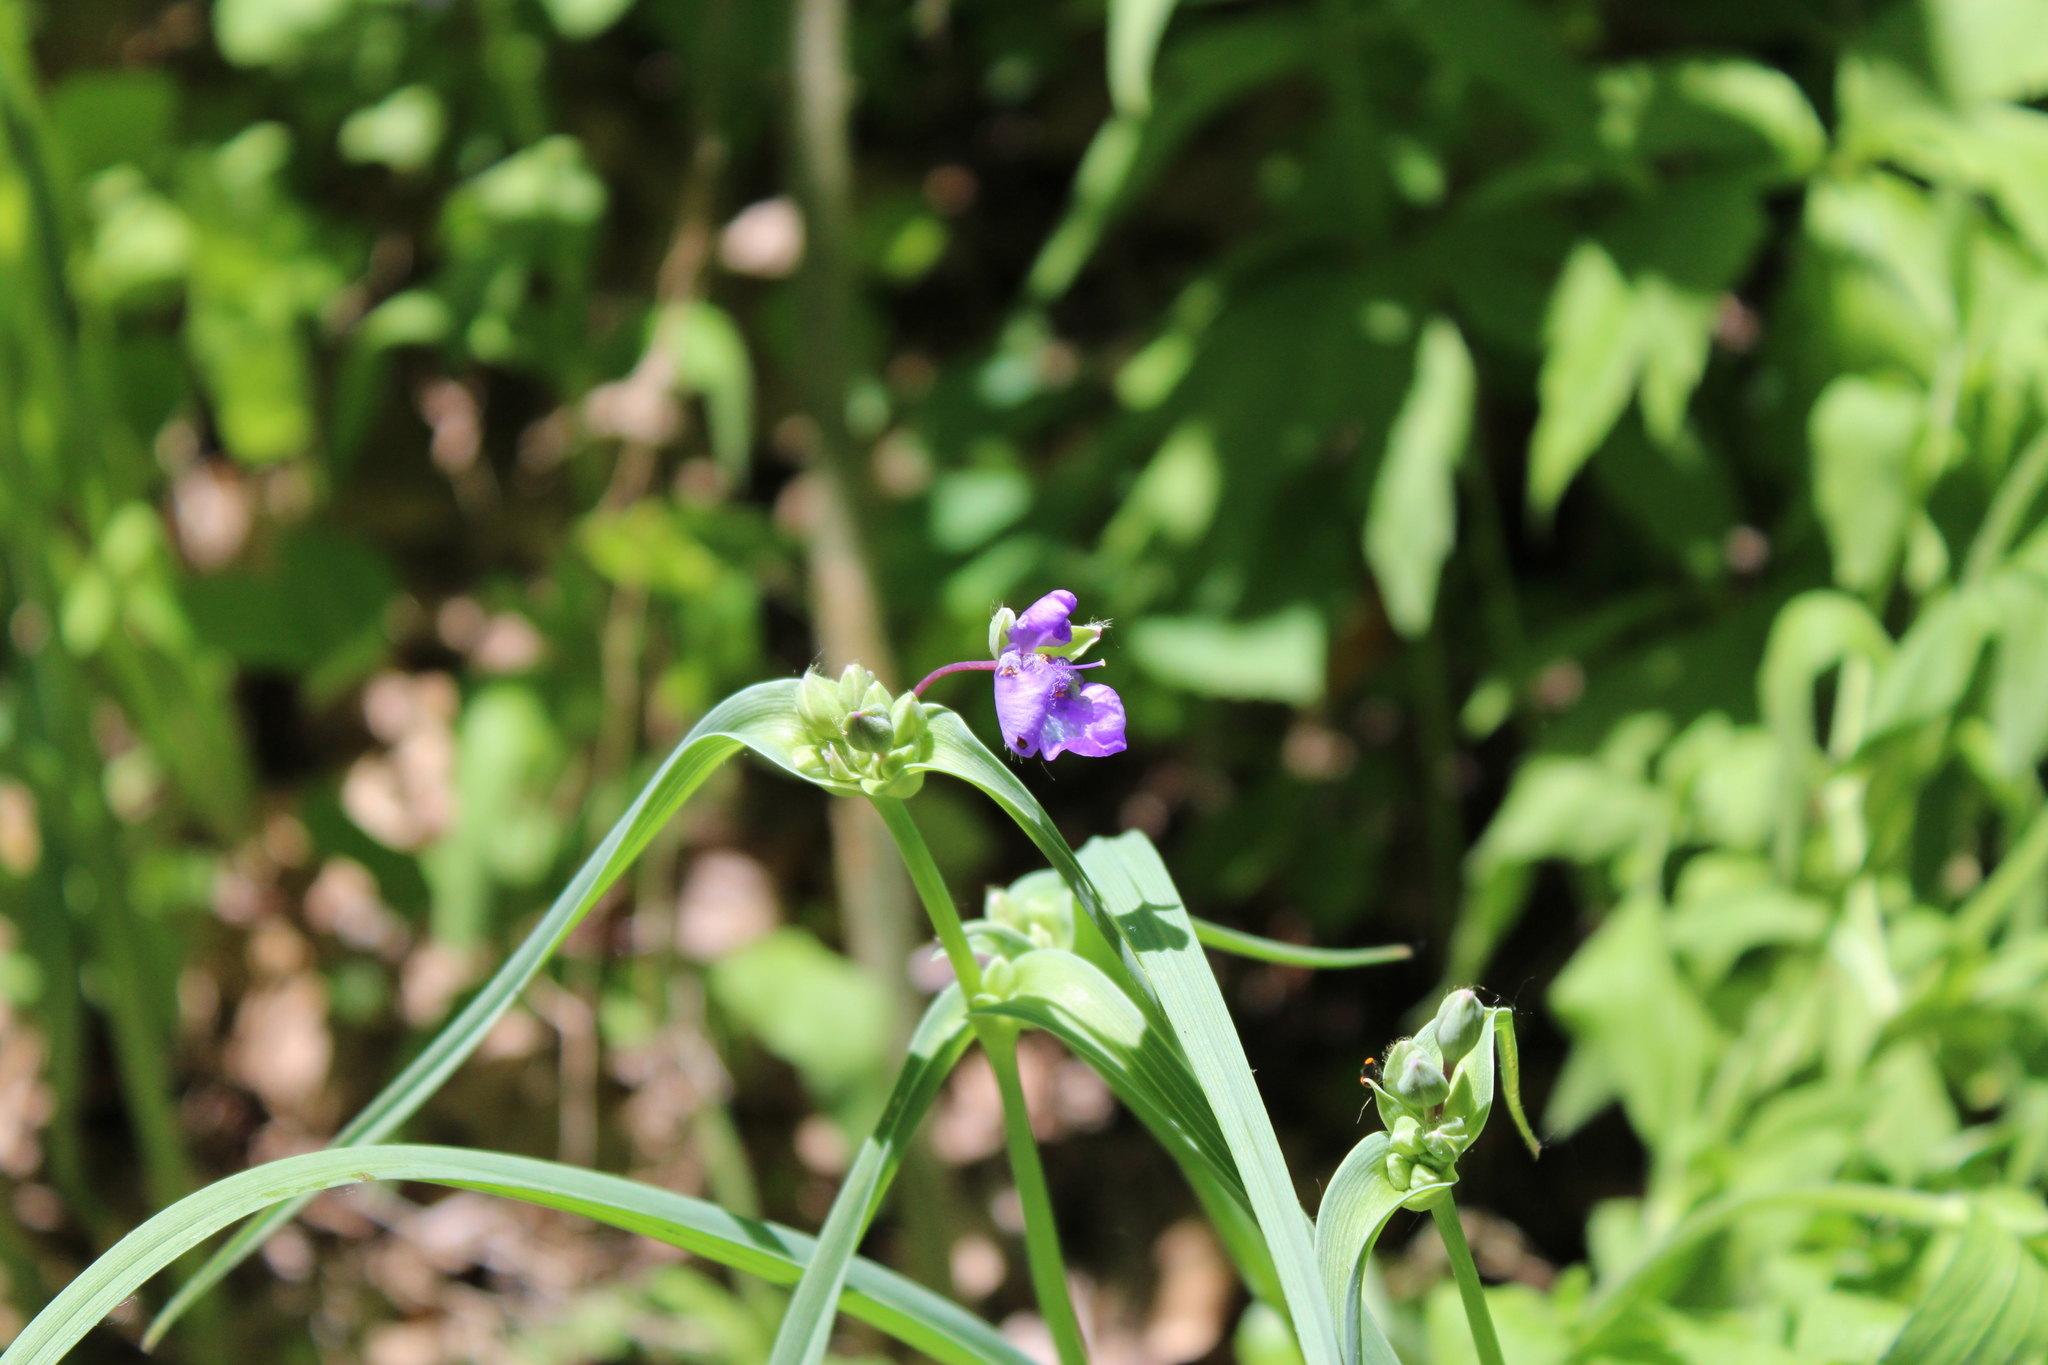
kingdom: Plantae
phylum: Tracheophyta
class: Liliopsida
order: Commelinales
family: Commelinaceae
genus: Tradescantia
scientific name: Tradescantia ohiensis
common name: Ohio spiderwort
